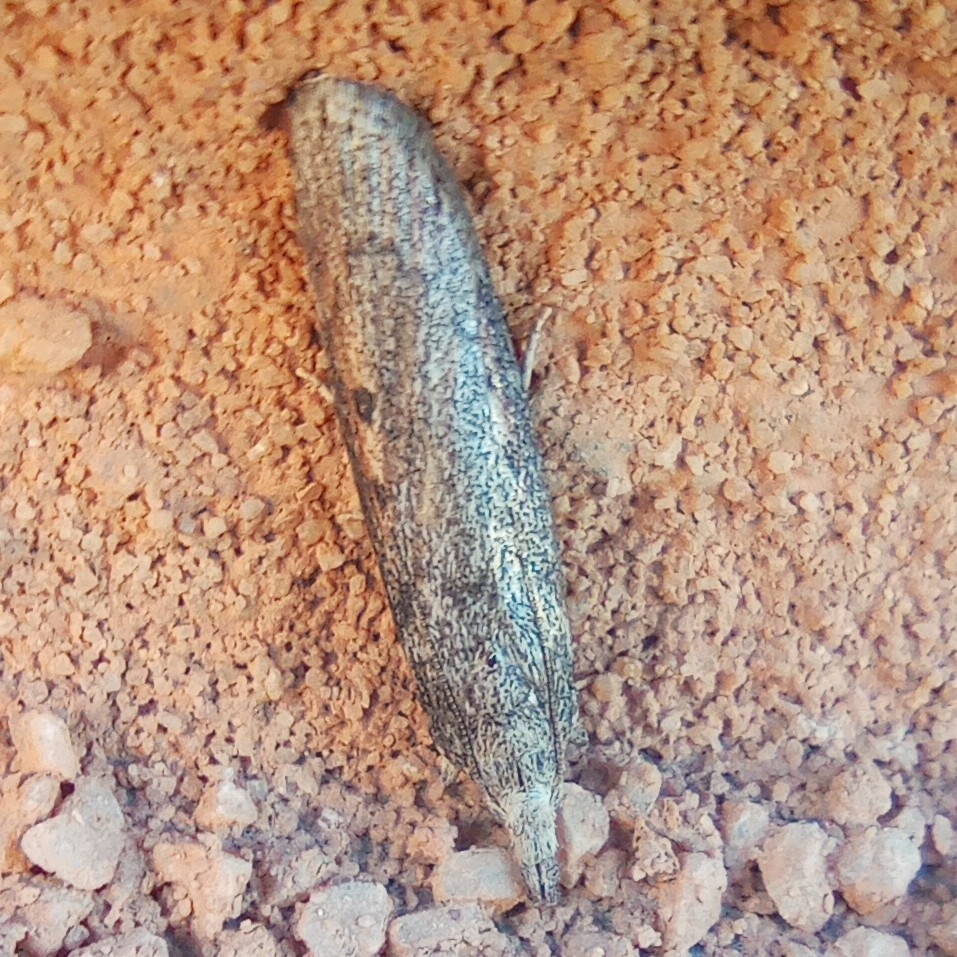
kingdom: Animalia
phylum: Arthropoda
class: Insecta
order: Lepidoptera
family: Pyralidae
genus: Aphomia
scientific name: Aphomia zelleri
